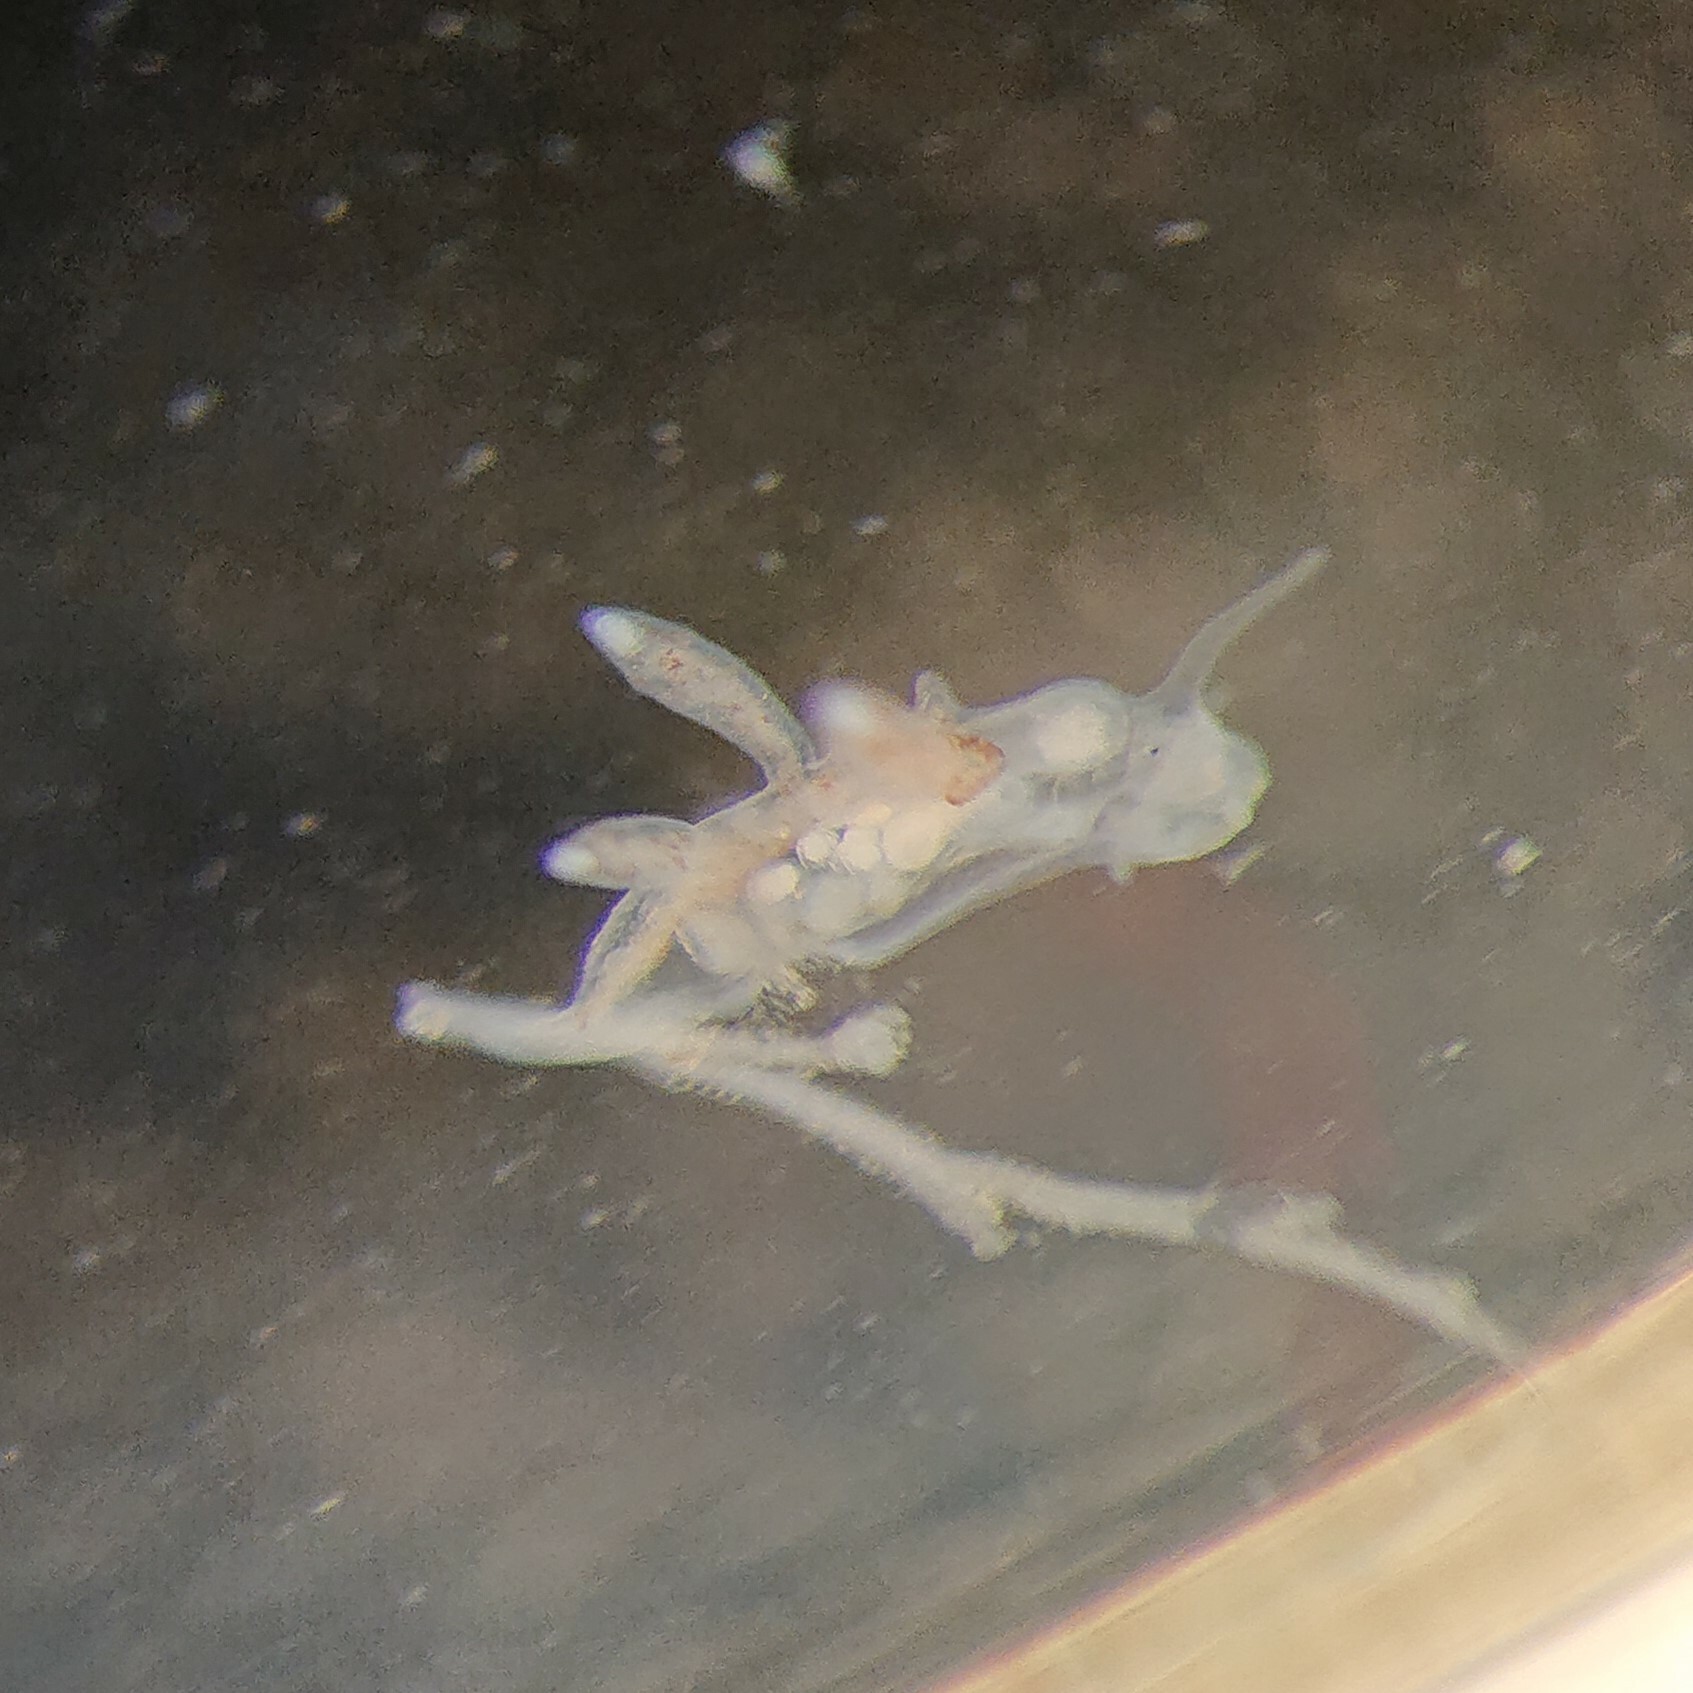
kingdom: Animalia
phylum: Mollusca
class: Gastropoda
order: Nudibranchia
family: Tergipedidae
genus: Tergipes
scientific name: Tergipes tergipes
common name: Johnston's balloon eolis
